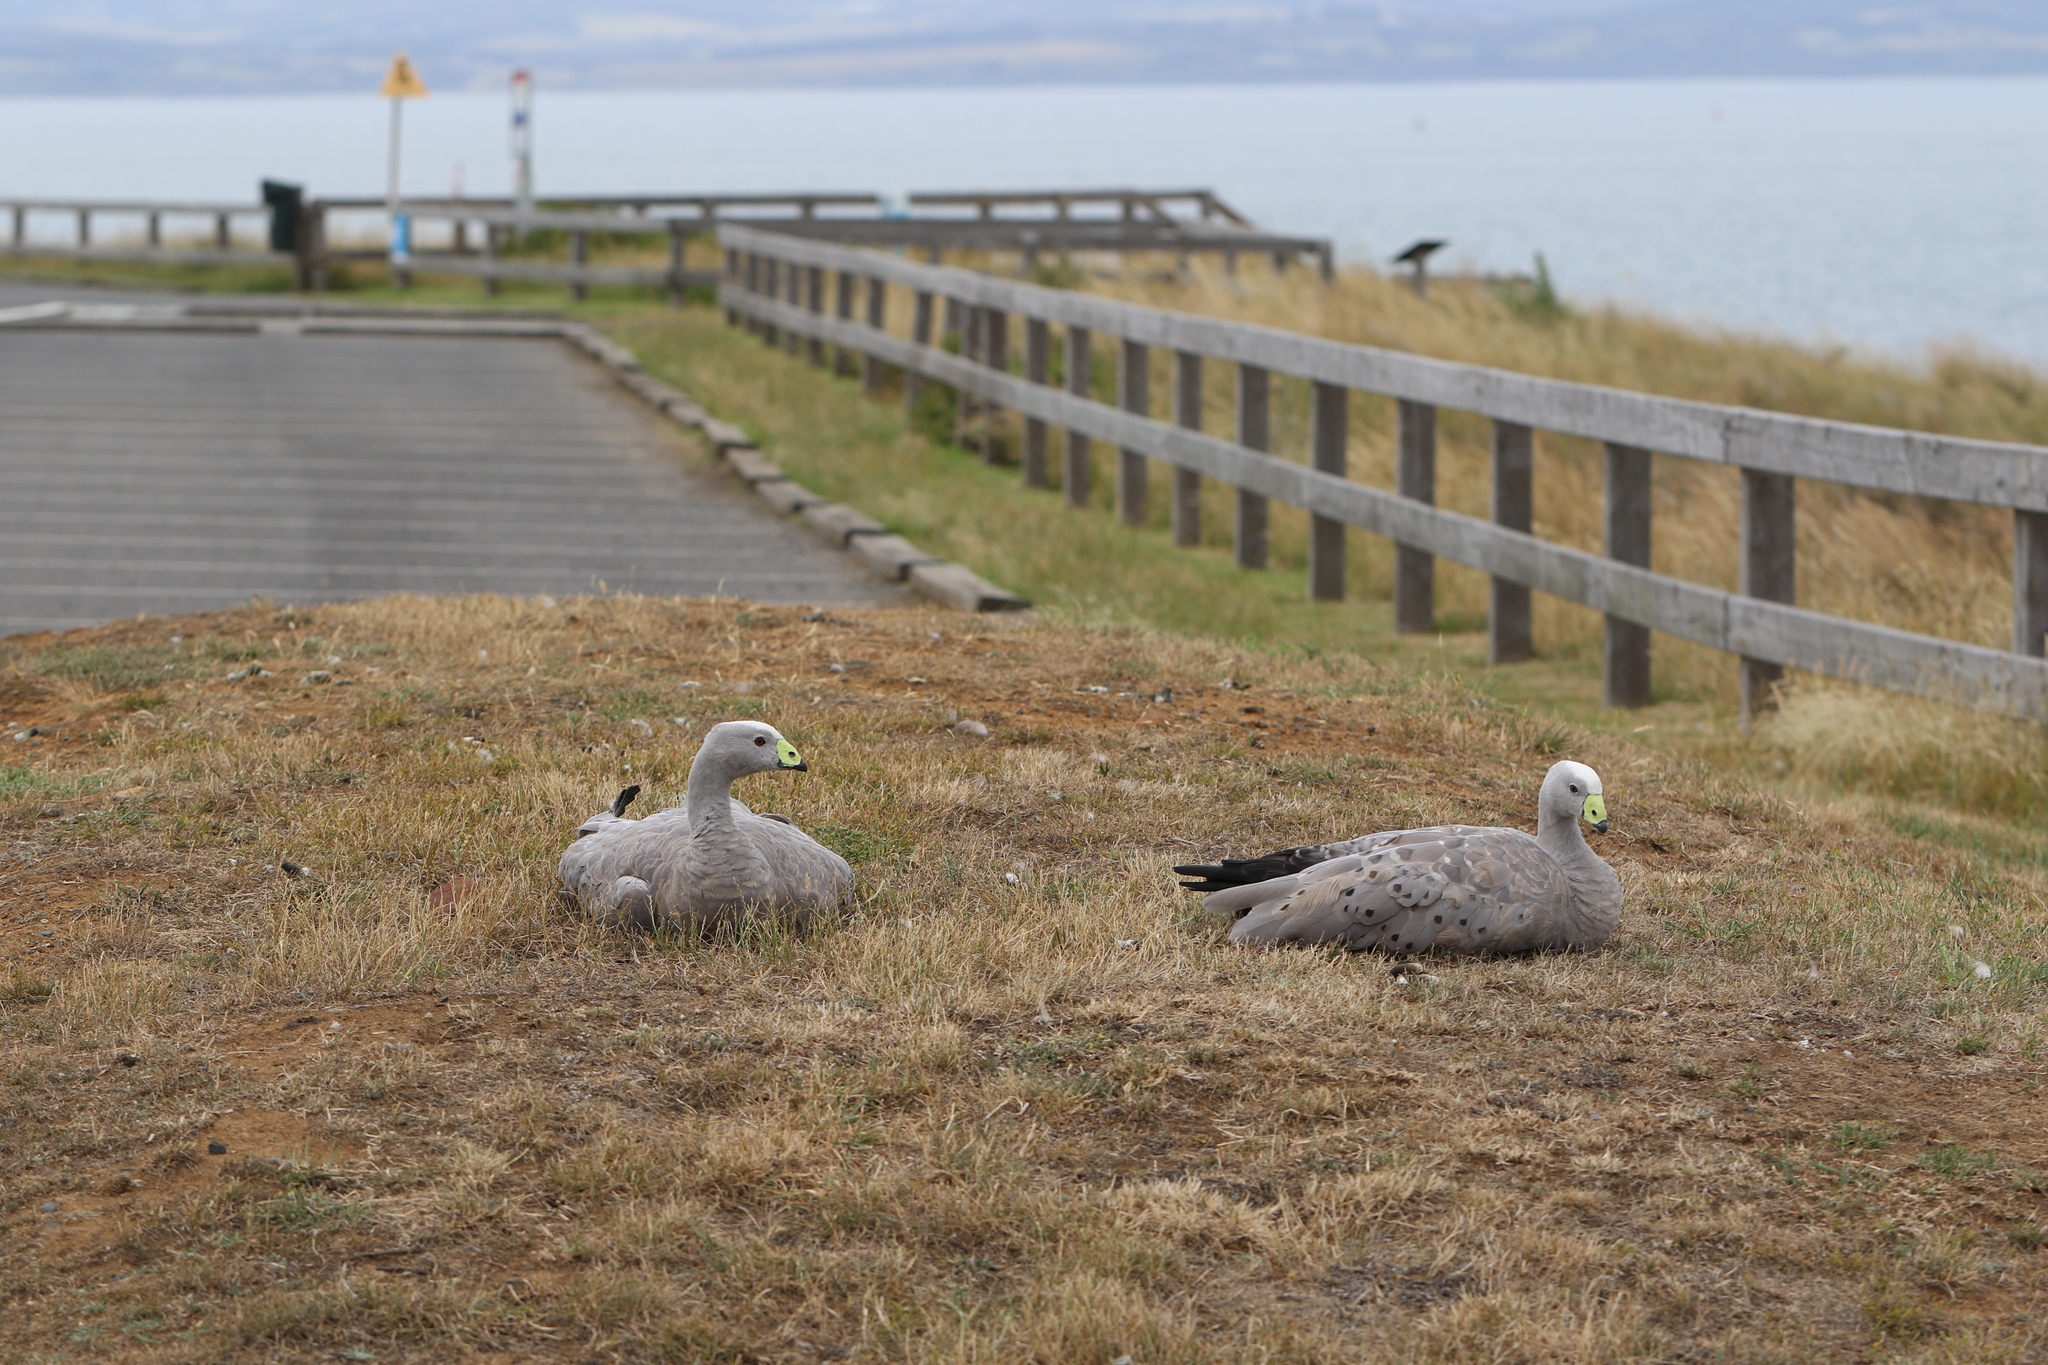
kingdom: Animalia
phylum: Chordata
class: Aves
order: Anseriformes
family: Anatidae
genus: Cereopsis
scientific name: Cereopsis novaehollandiae
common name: Cape barren goose
